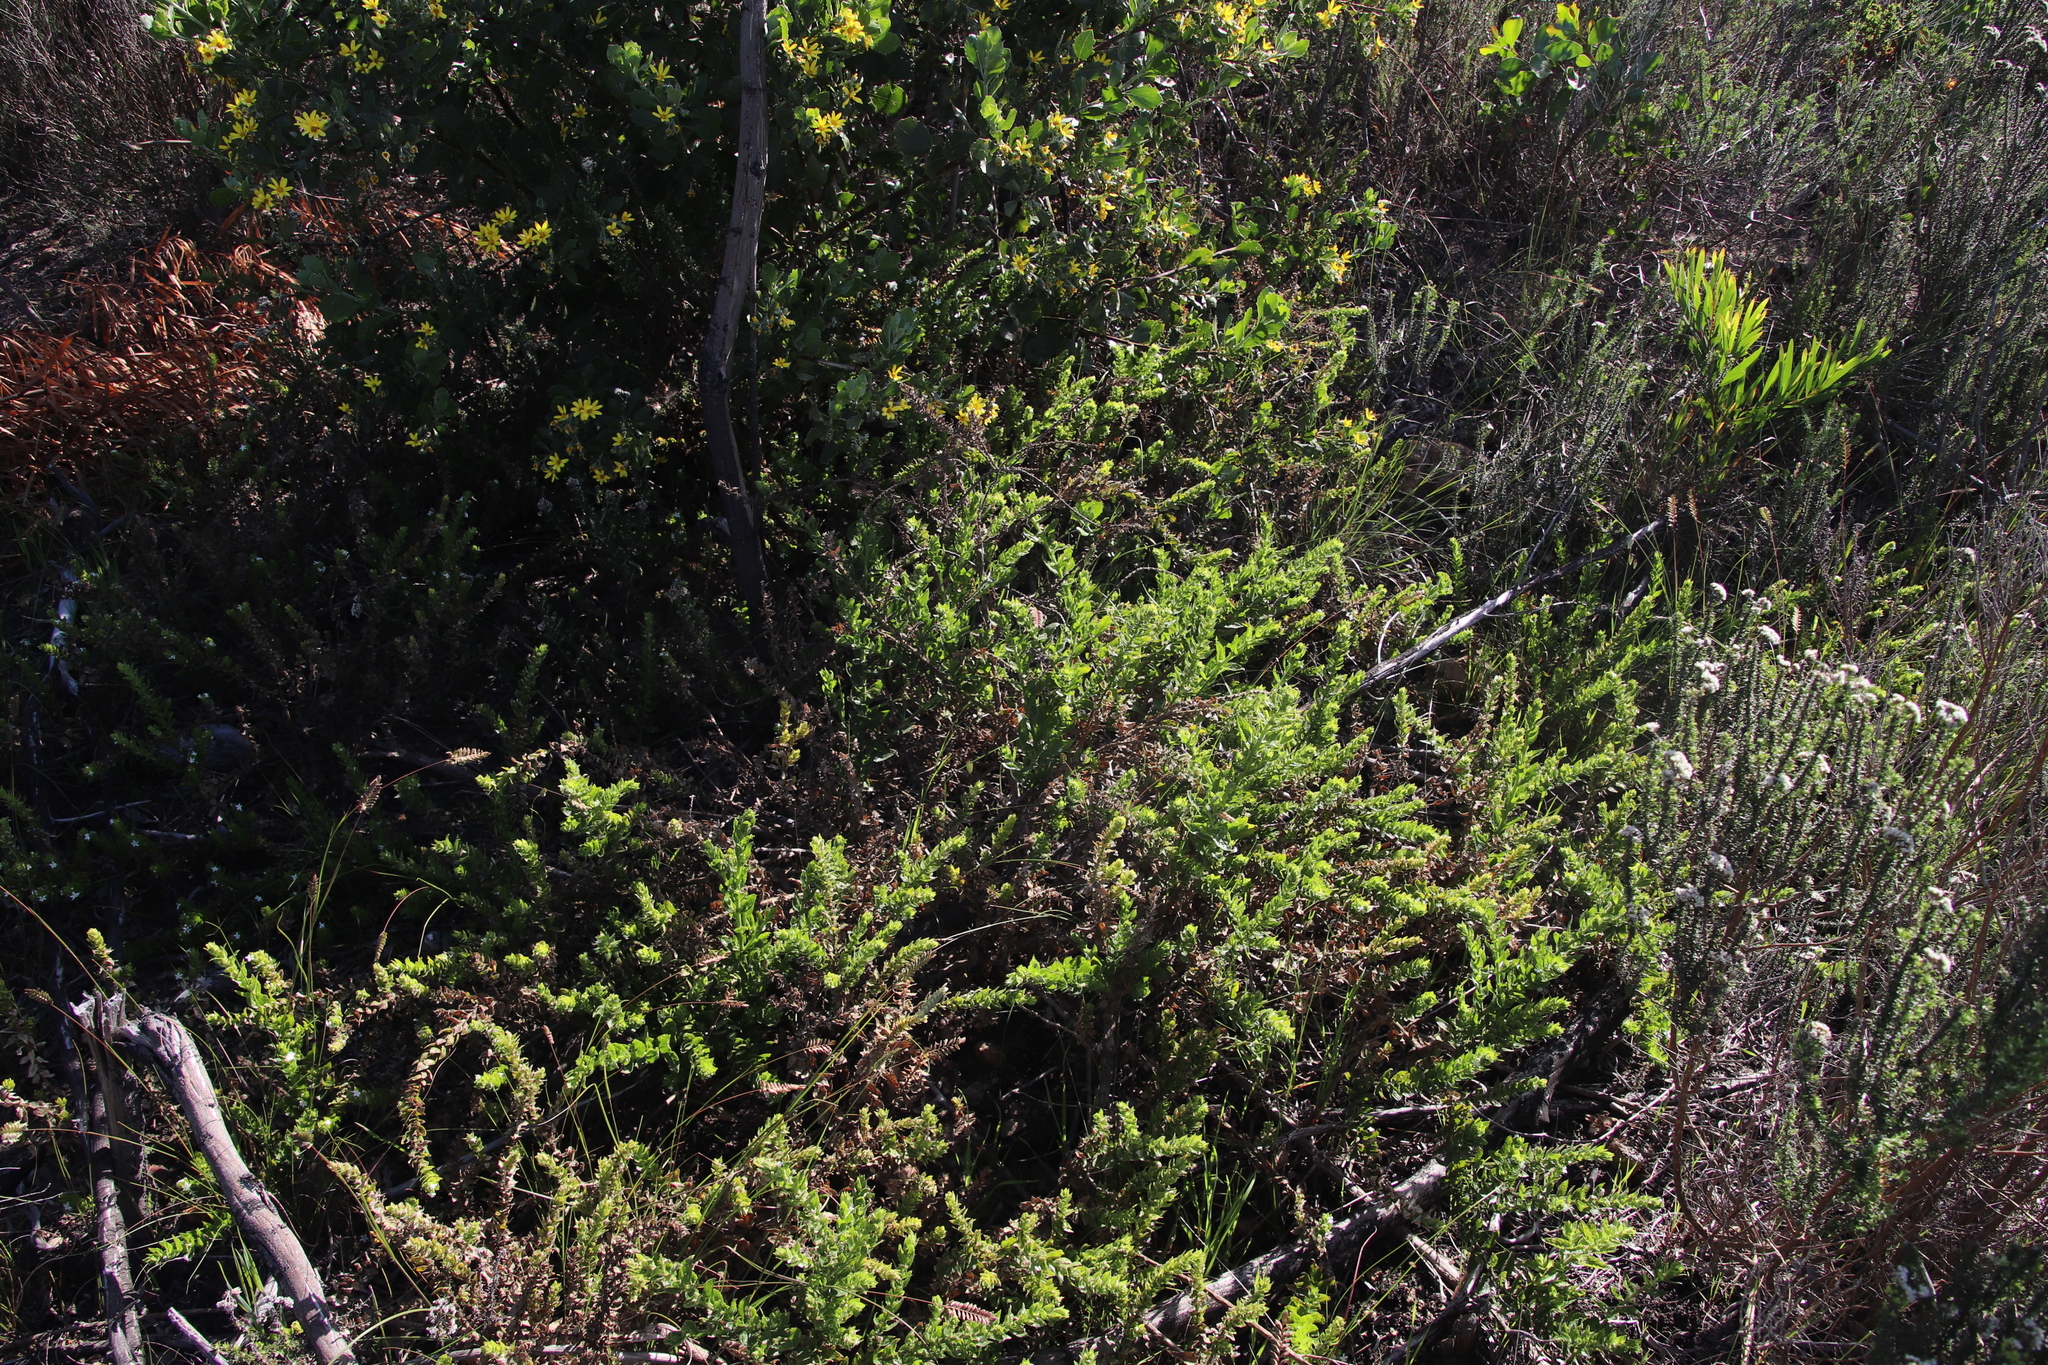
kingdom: Plantae
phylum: Tracheophyta
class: Magnoliopsida
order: Lamiales
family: Scrophulariaceae
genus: Oftia
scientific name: Oftia africana
